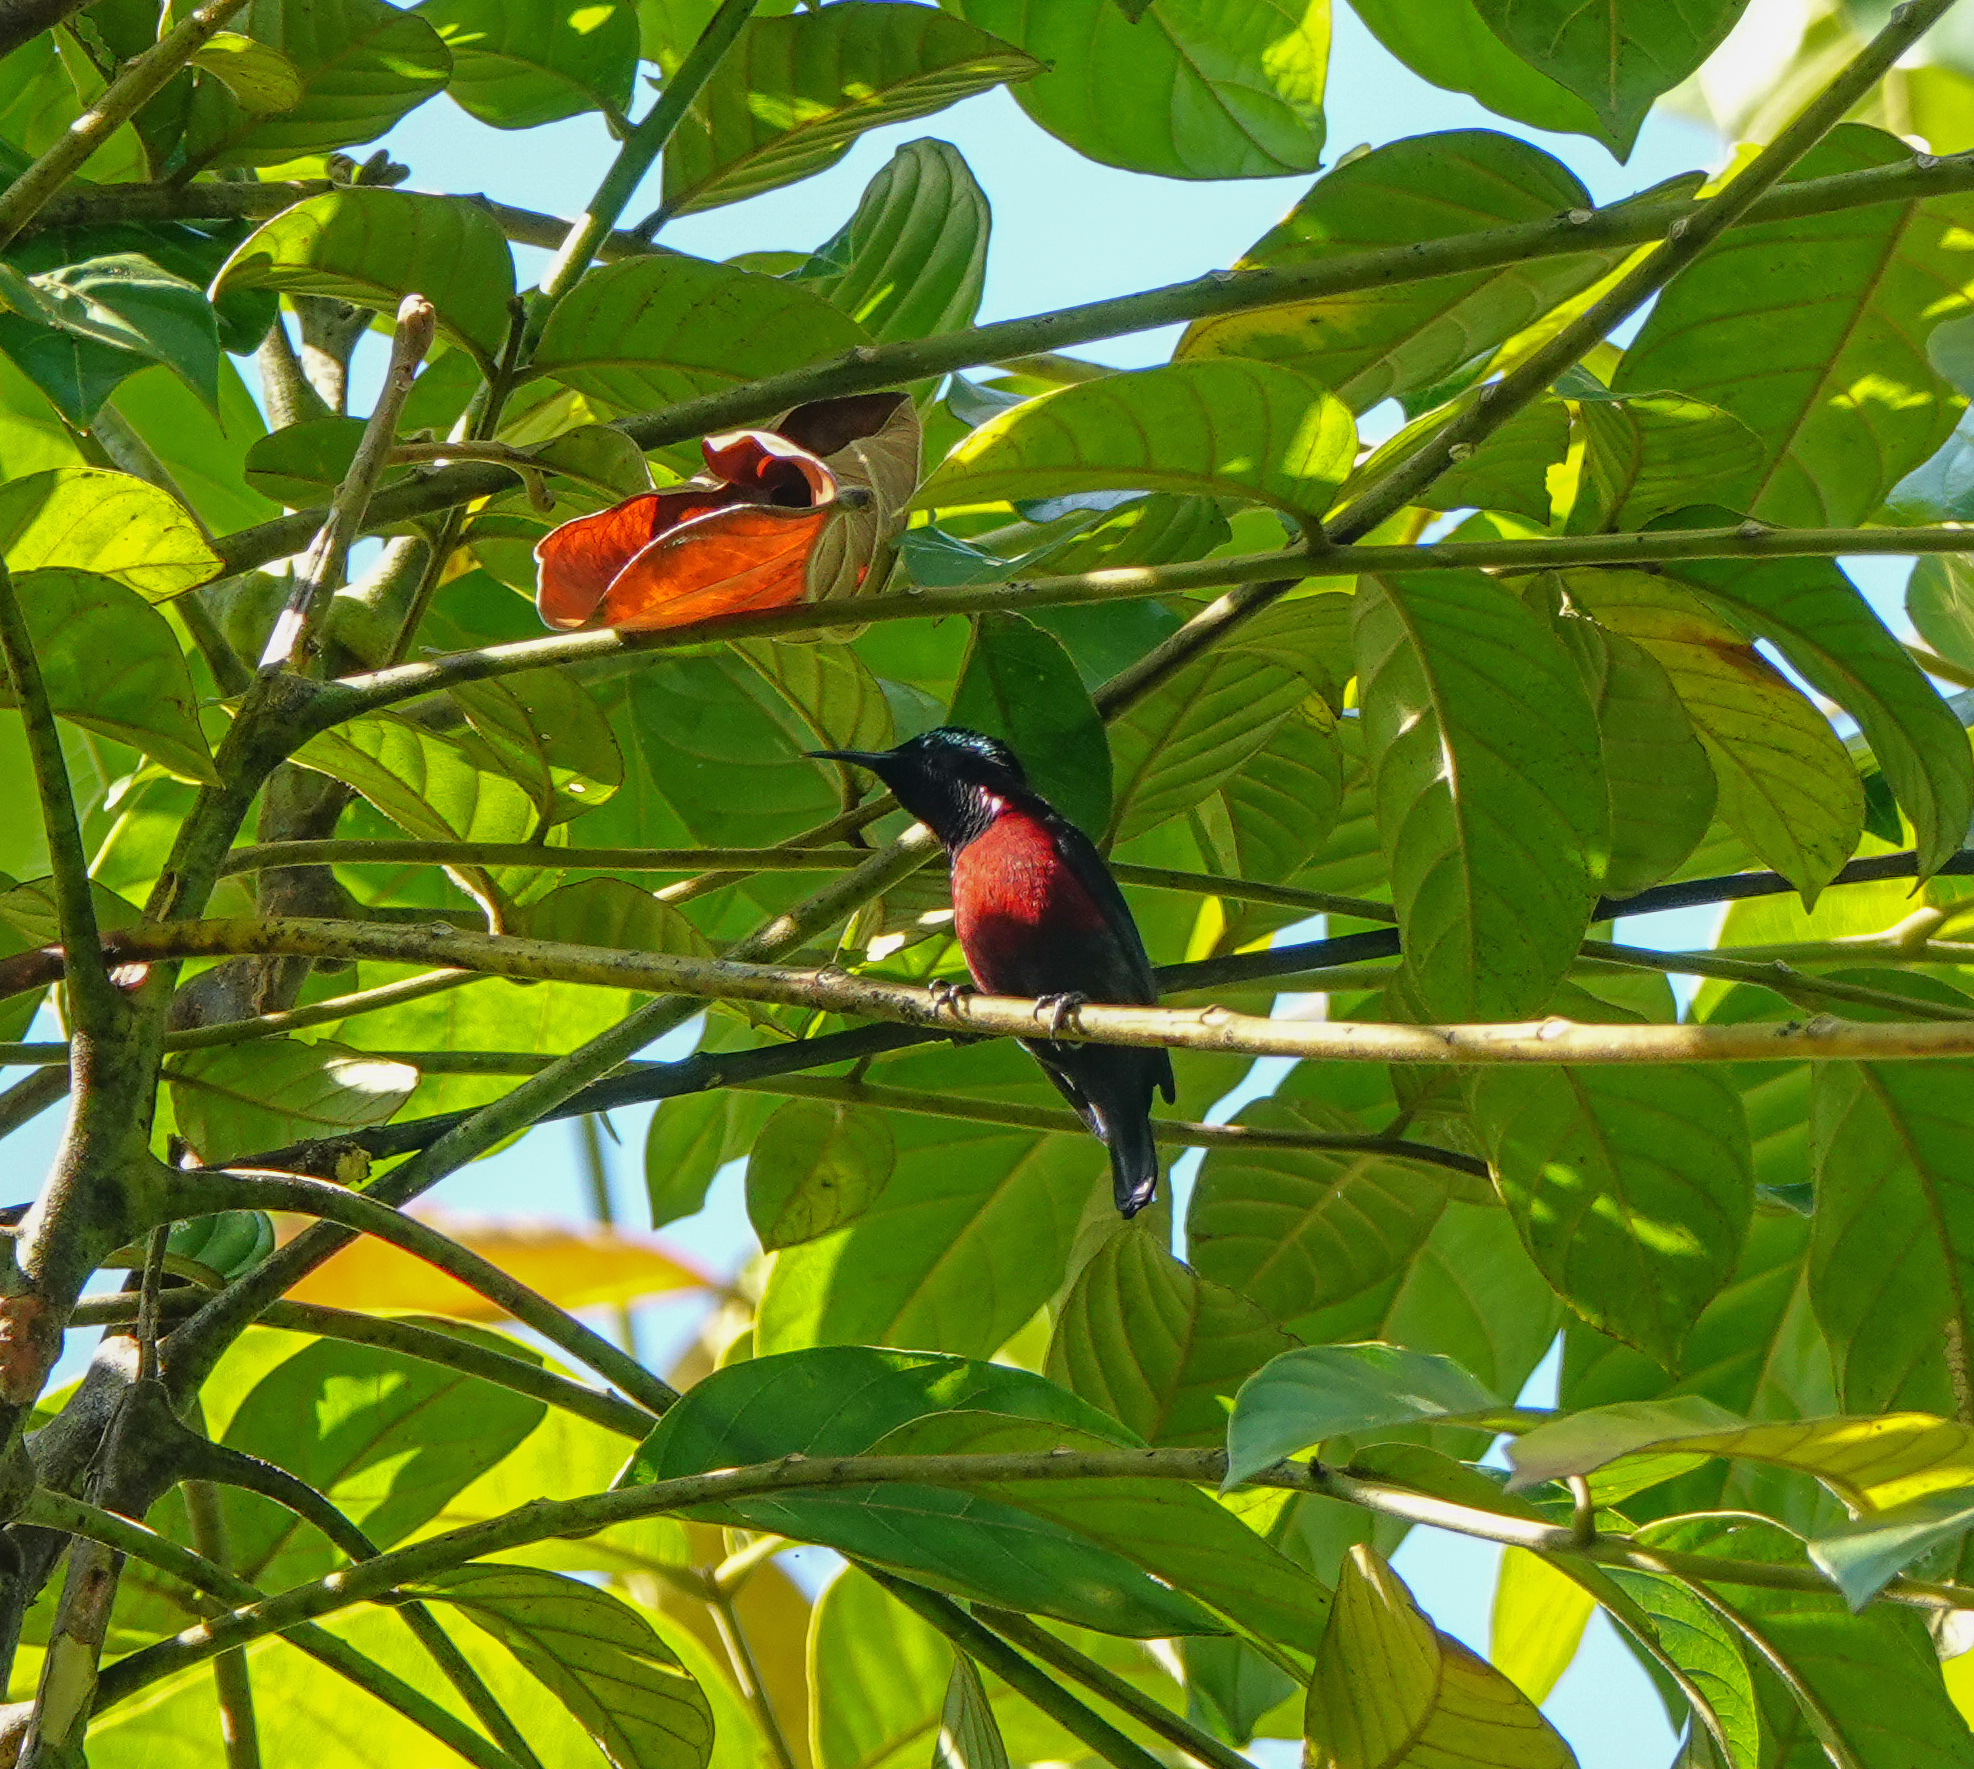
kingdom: Animalia
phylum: Chordata
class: Aves
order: Passeriformes
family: Nectariniidae
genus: Leptocoma
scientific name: Leptocoma brasiliana
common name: Van hasselt's sunbird
